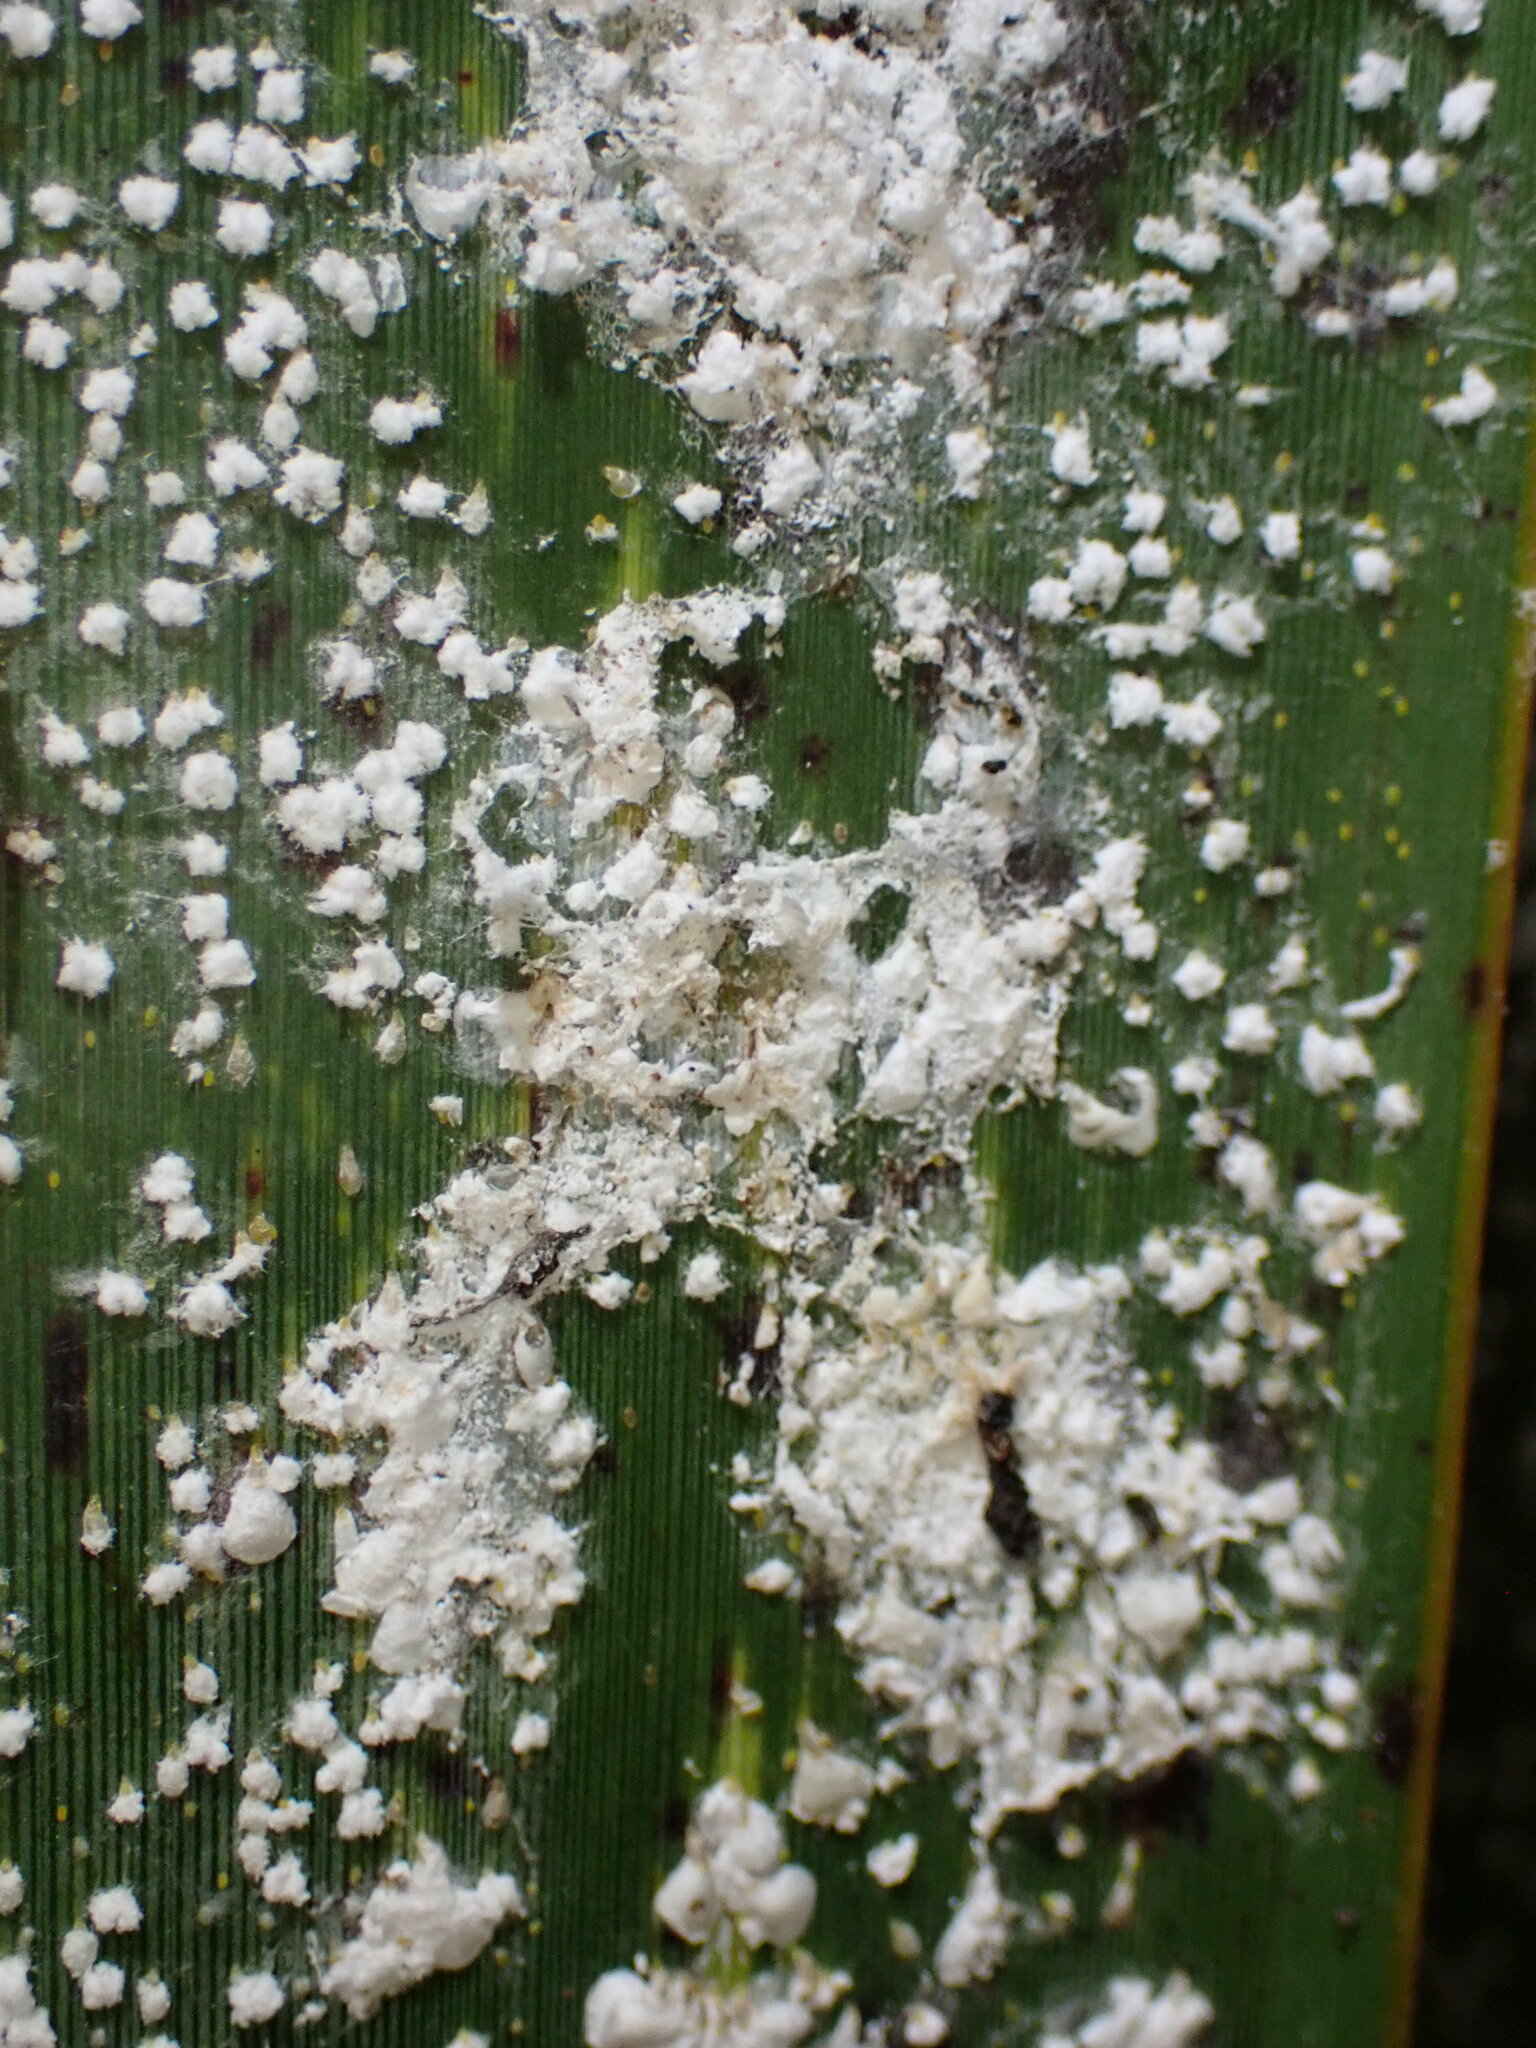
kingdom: Animalia
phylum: Arthropoda
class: Insecta
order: Hemiptera
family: Diaspididae
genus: Poliaspis
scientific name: Poliaspis floccosa
